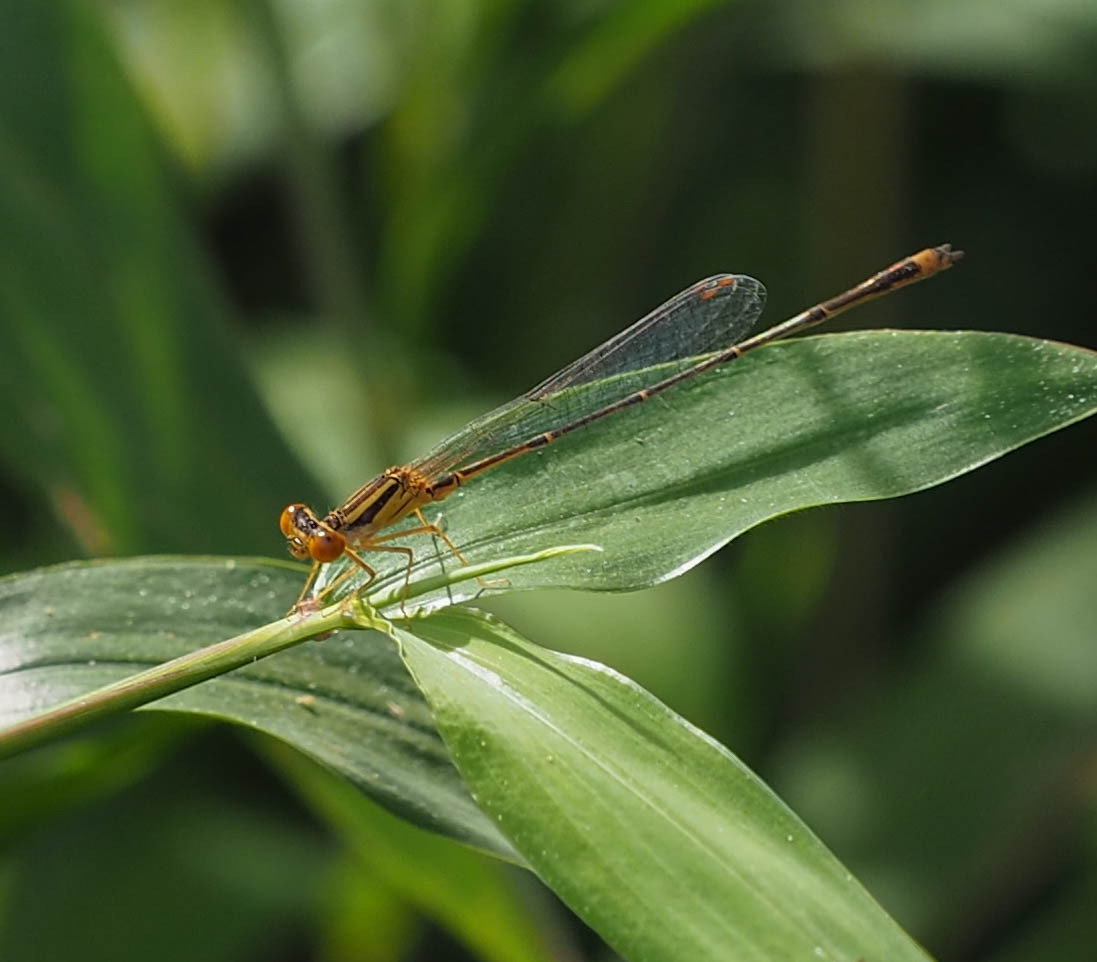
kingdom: Animalia
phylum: Arthropoda
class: Insecta
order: Odonata
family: Coenagrionidae
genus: Enallagma
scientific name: Enallagma signatum
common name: Orange bluet
